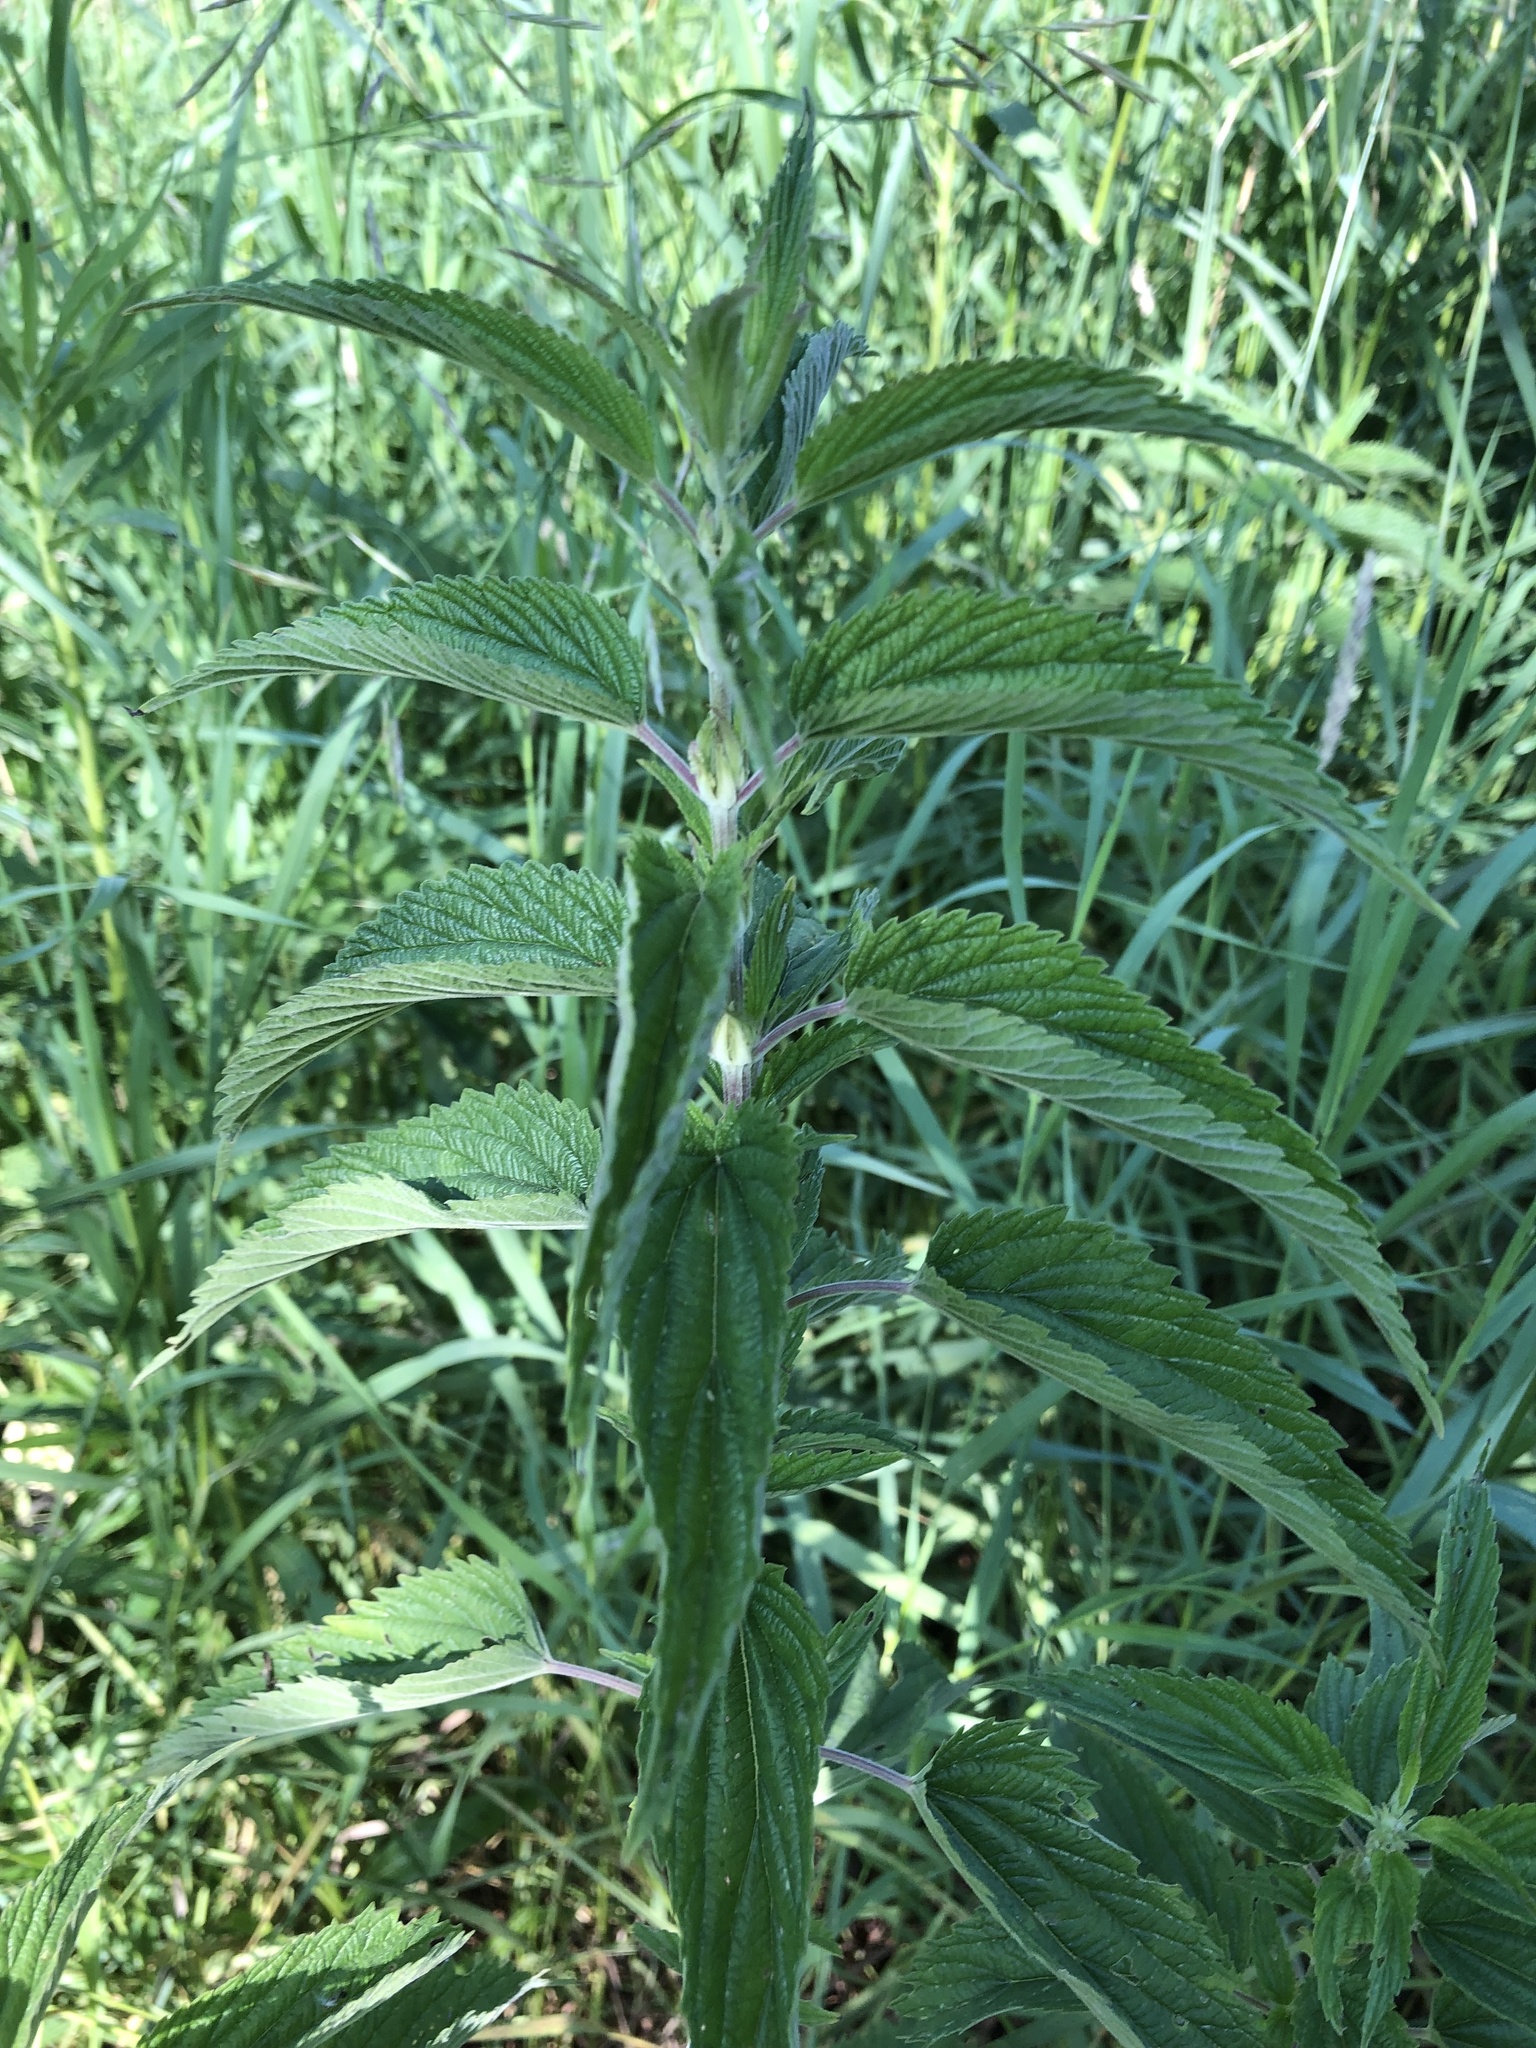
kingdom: Plantae
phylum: Tracheophyta
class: Magnoliopsida
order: Rosales
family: Urticaceae
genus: Urtica
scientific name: Urtica dioica
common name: Common nettle
